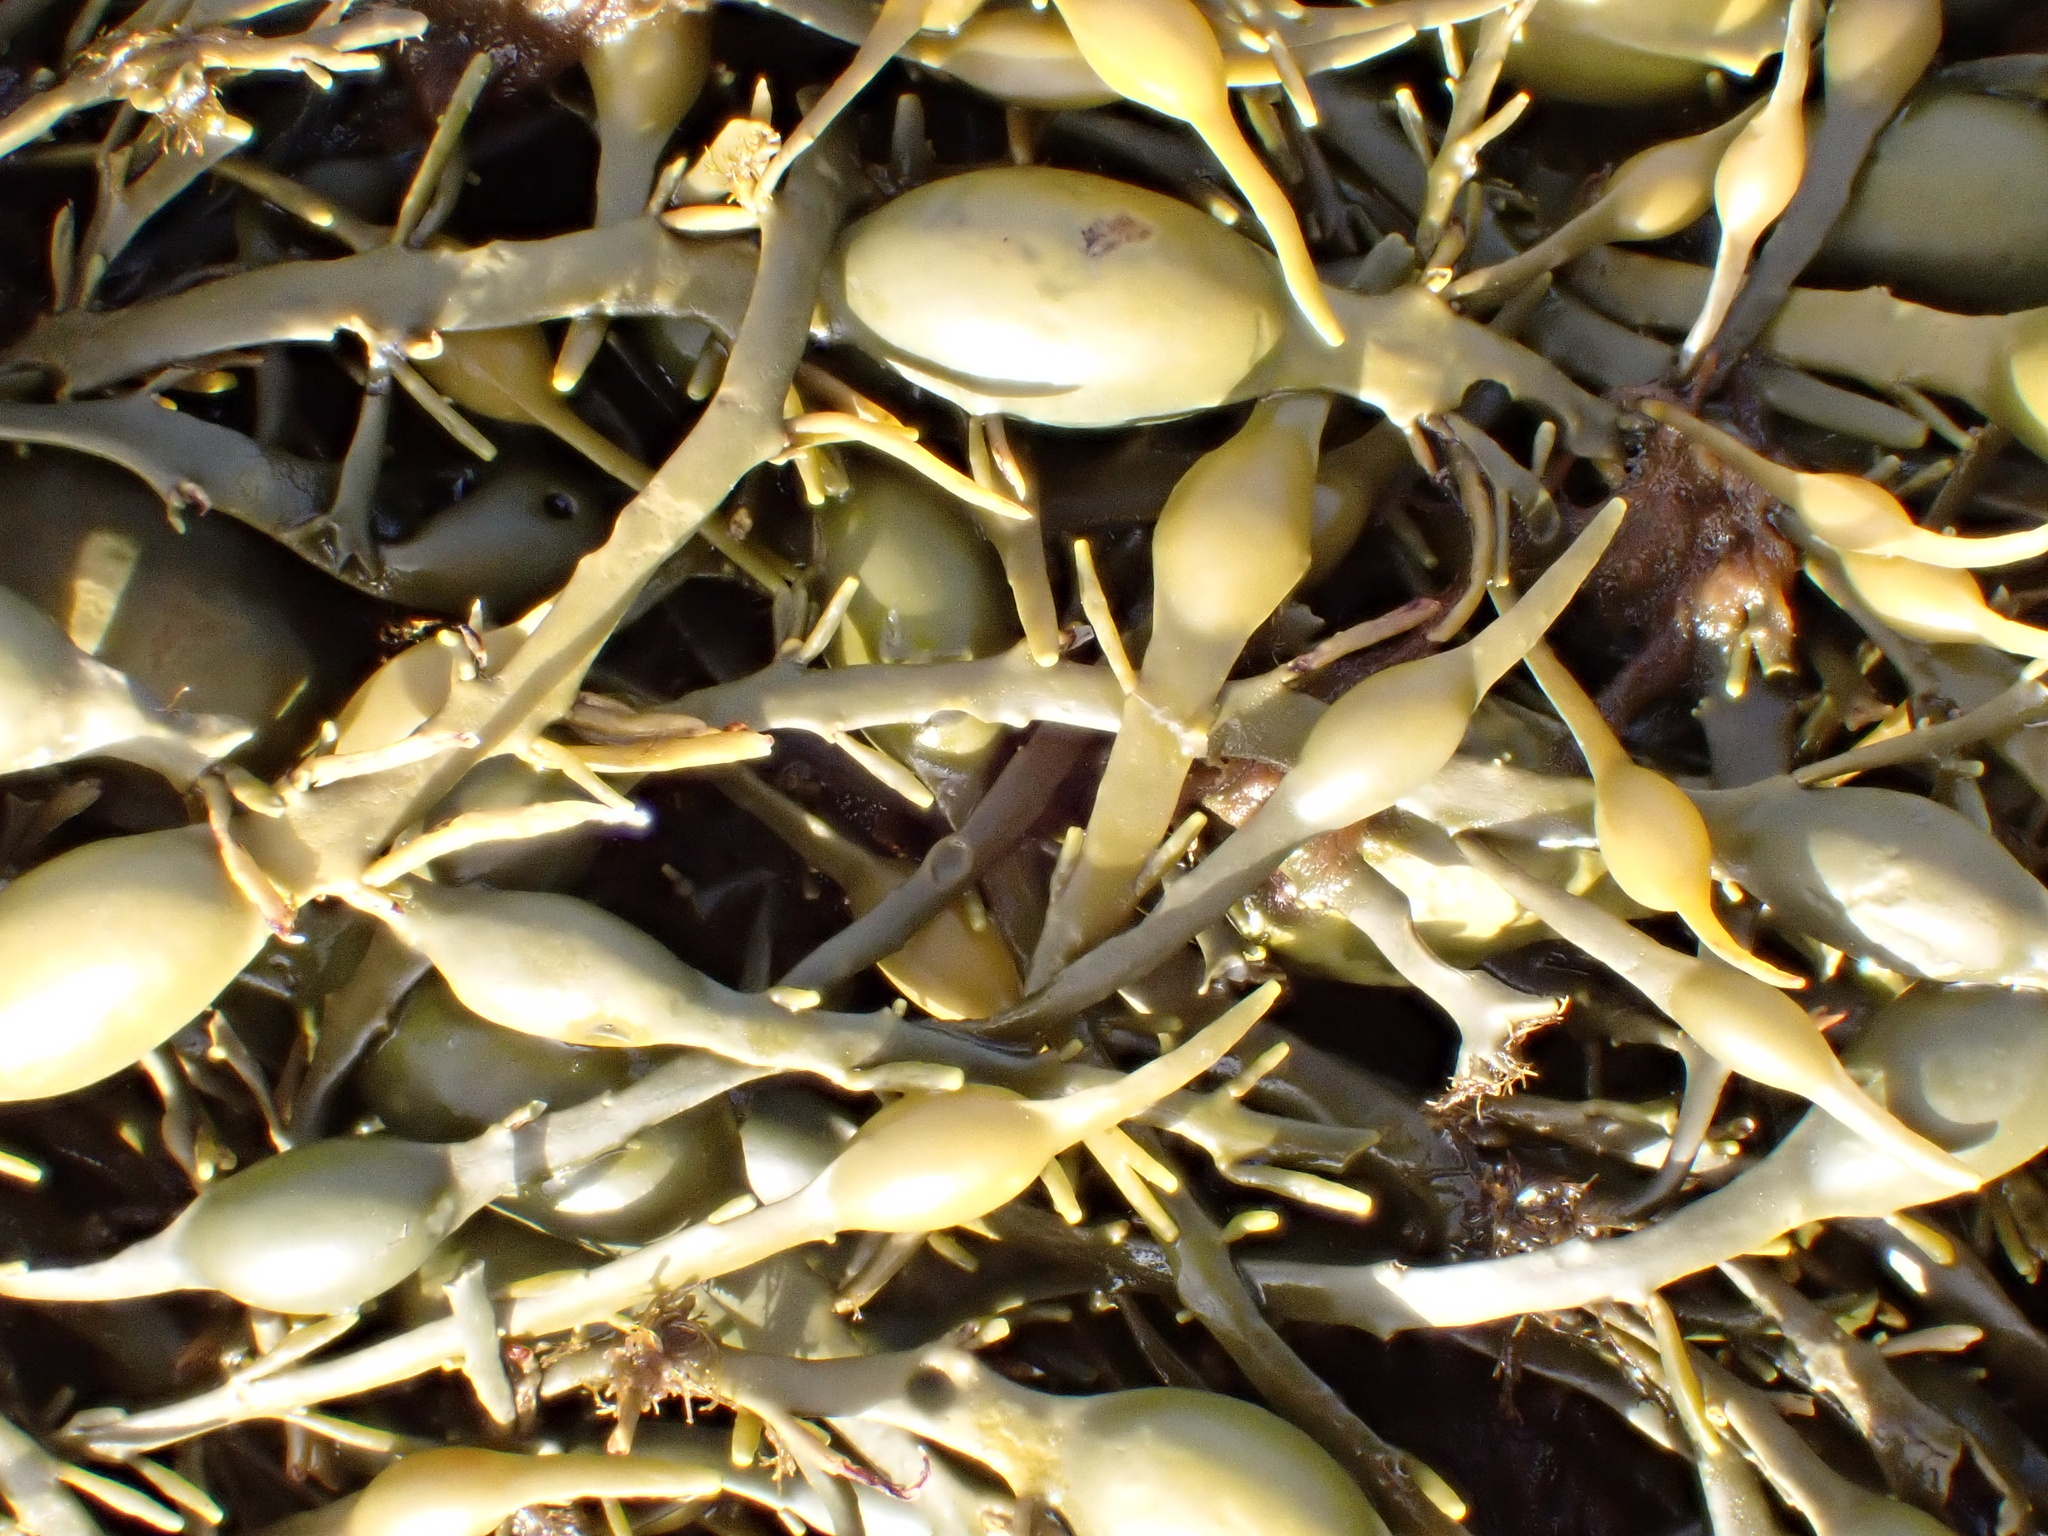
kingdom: Chromista
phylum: Ochrophyta
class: Phaeophyceae
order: Fucales
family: Fucaceae
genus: Ascophyllum
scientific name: Ascophyllum nodosum
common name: Knotted wrack
